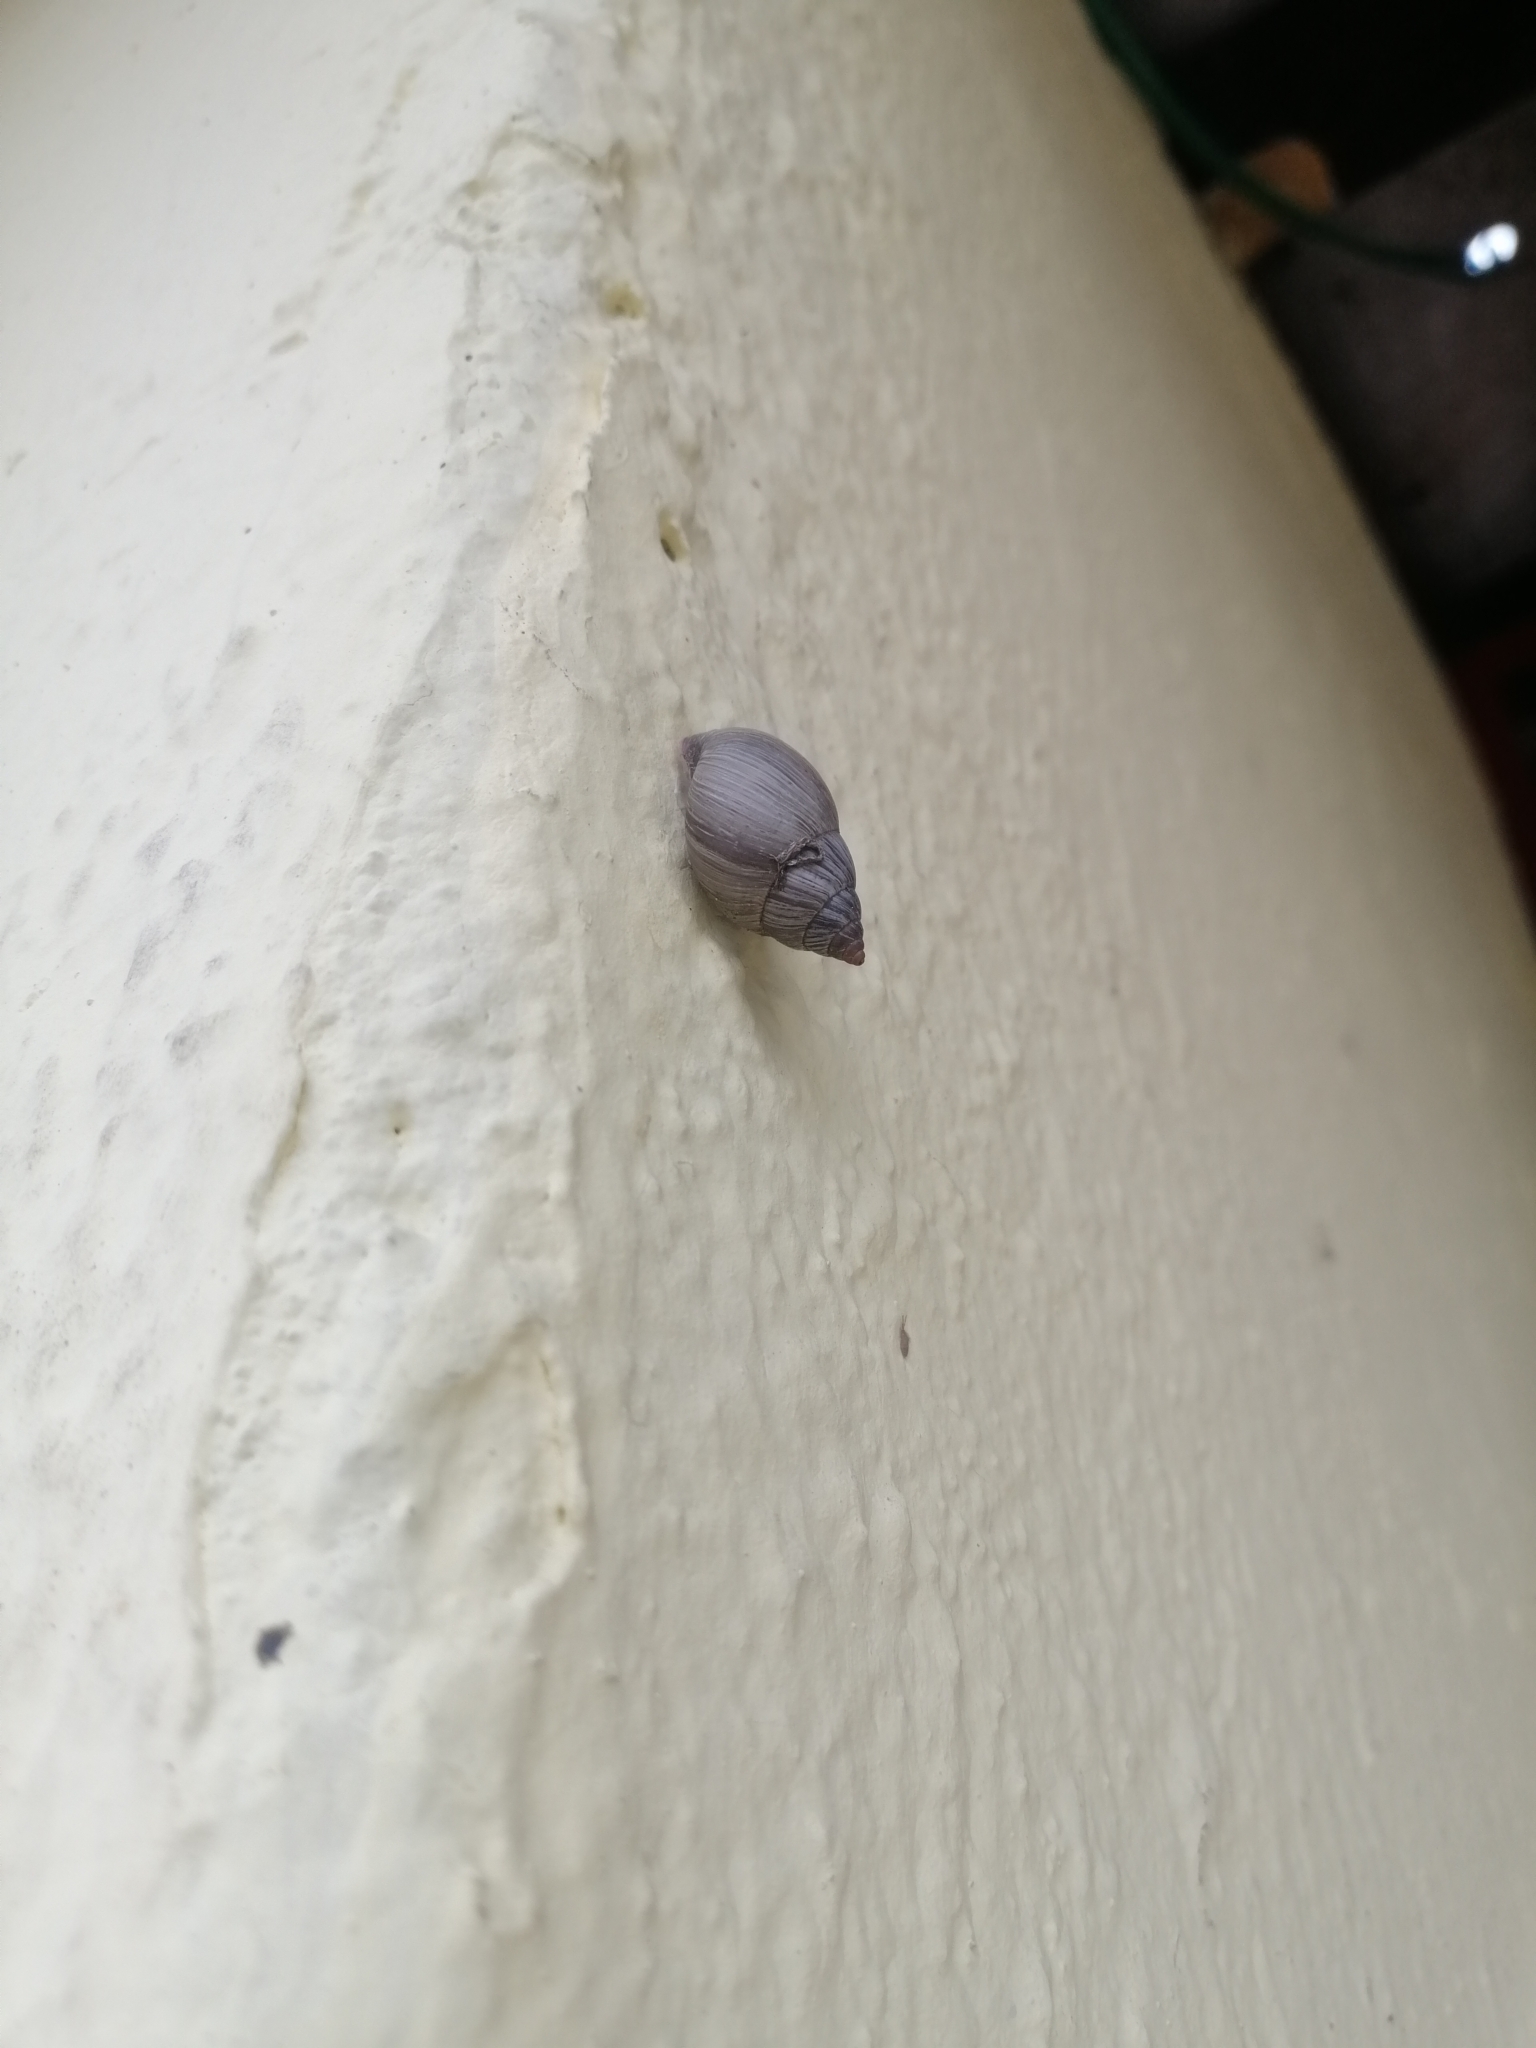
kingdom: Animalia
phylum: Mollusca
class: Gastropoda
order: Stylommatophora
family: Bulimulidae
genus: Naesiotus
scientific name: Naesiotus quitensis
